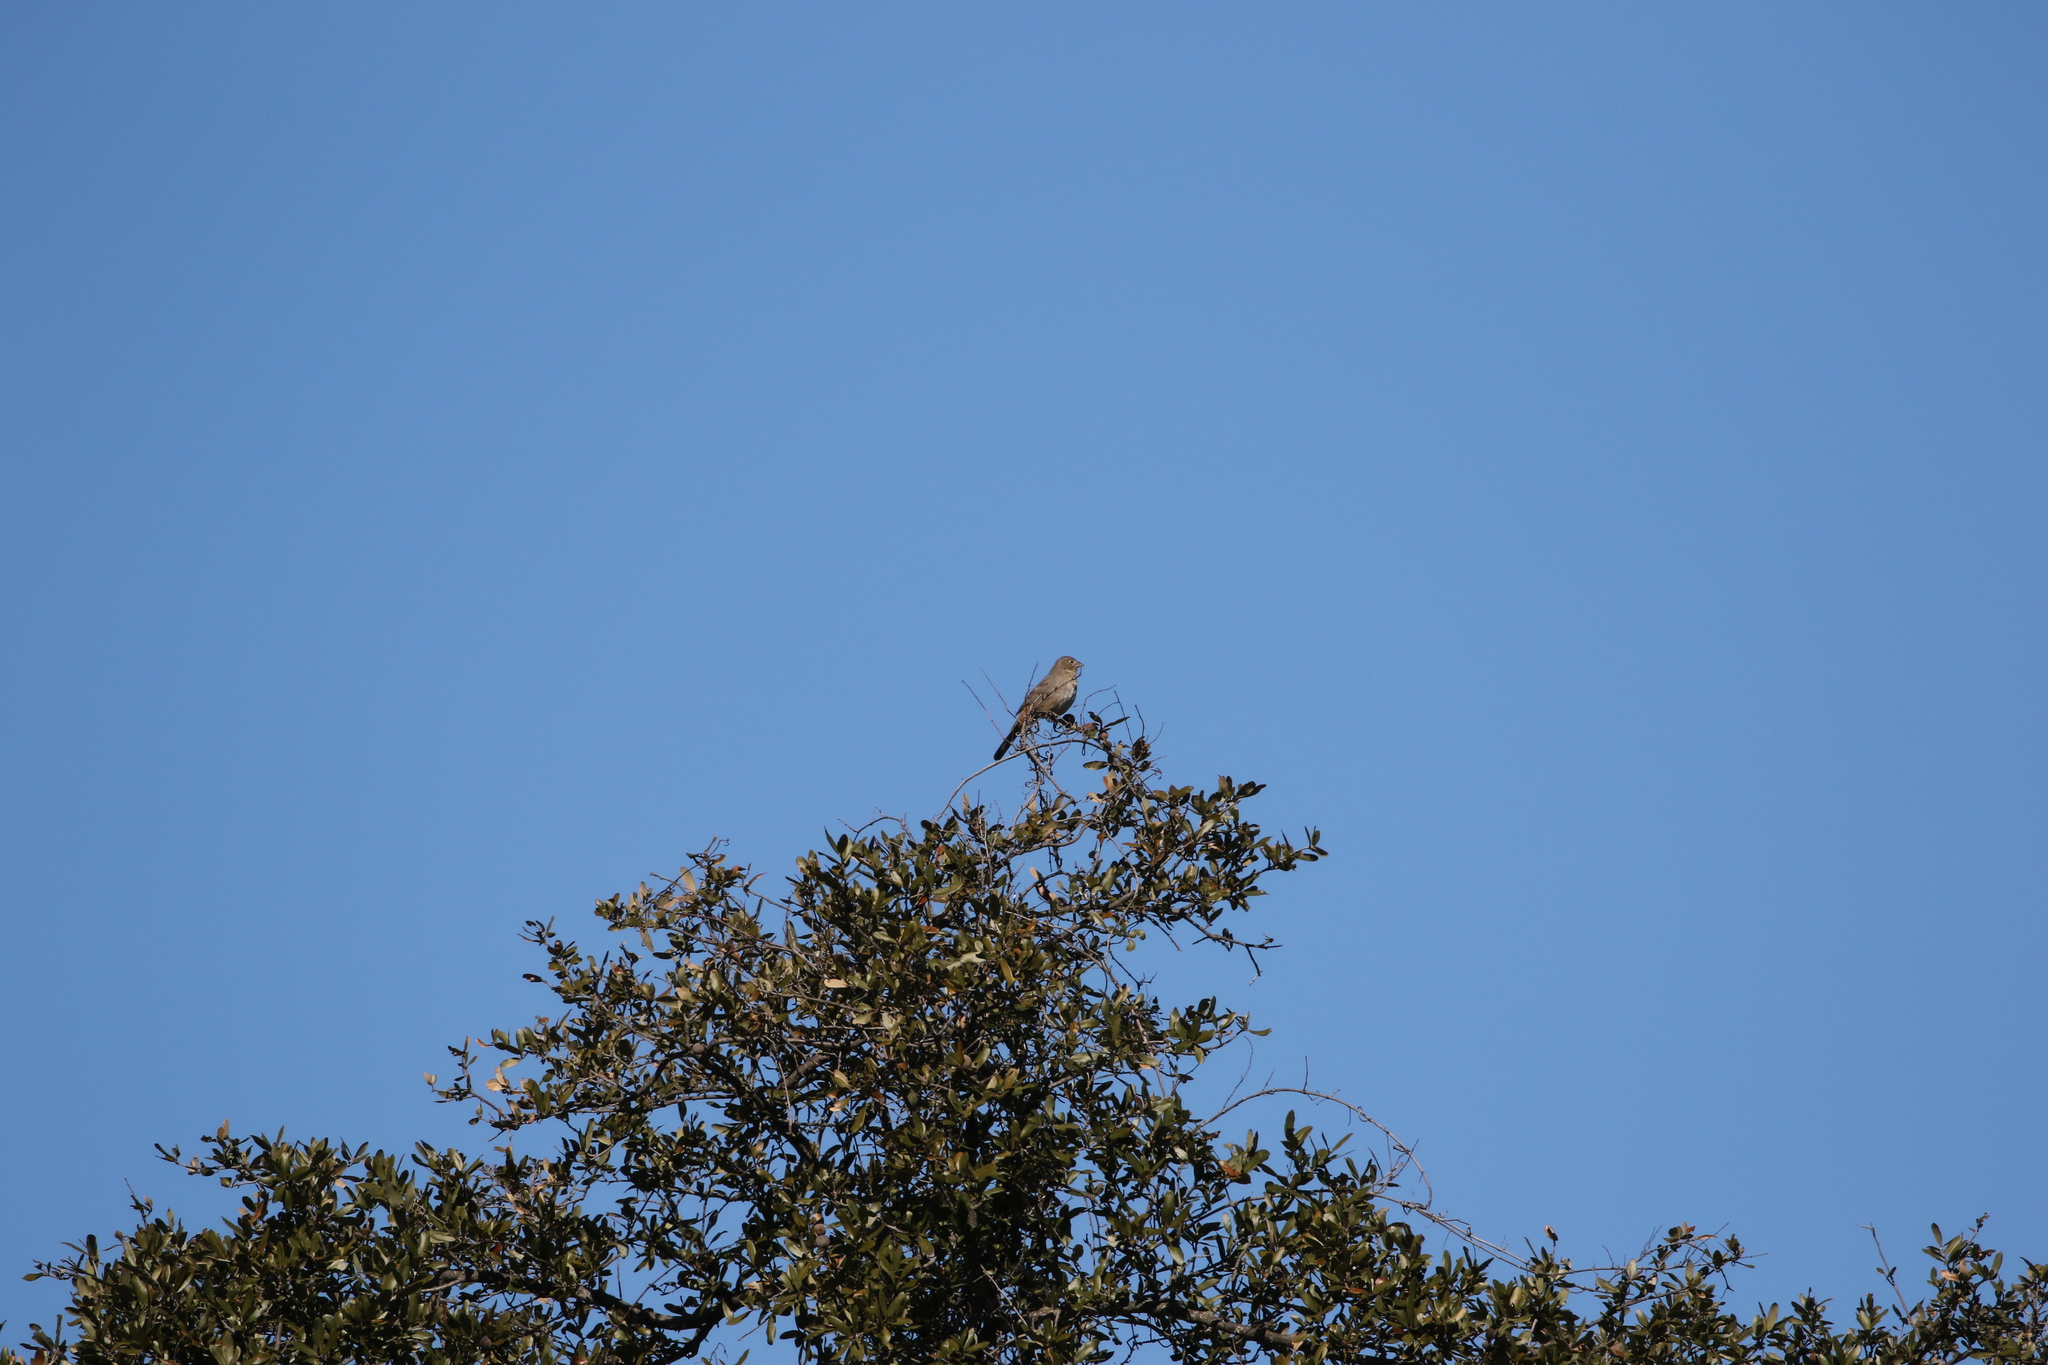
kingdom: Animalia
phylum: Chordata
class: Aves
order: Passeriformes
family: Passerellidae
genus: Melozone
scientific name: Melozone fusca
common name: Canyon towhee
